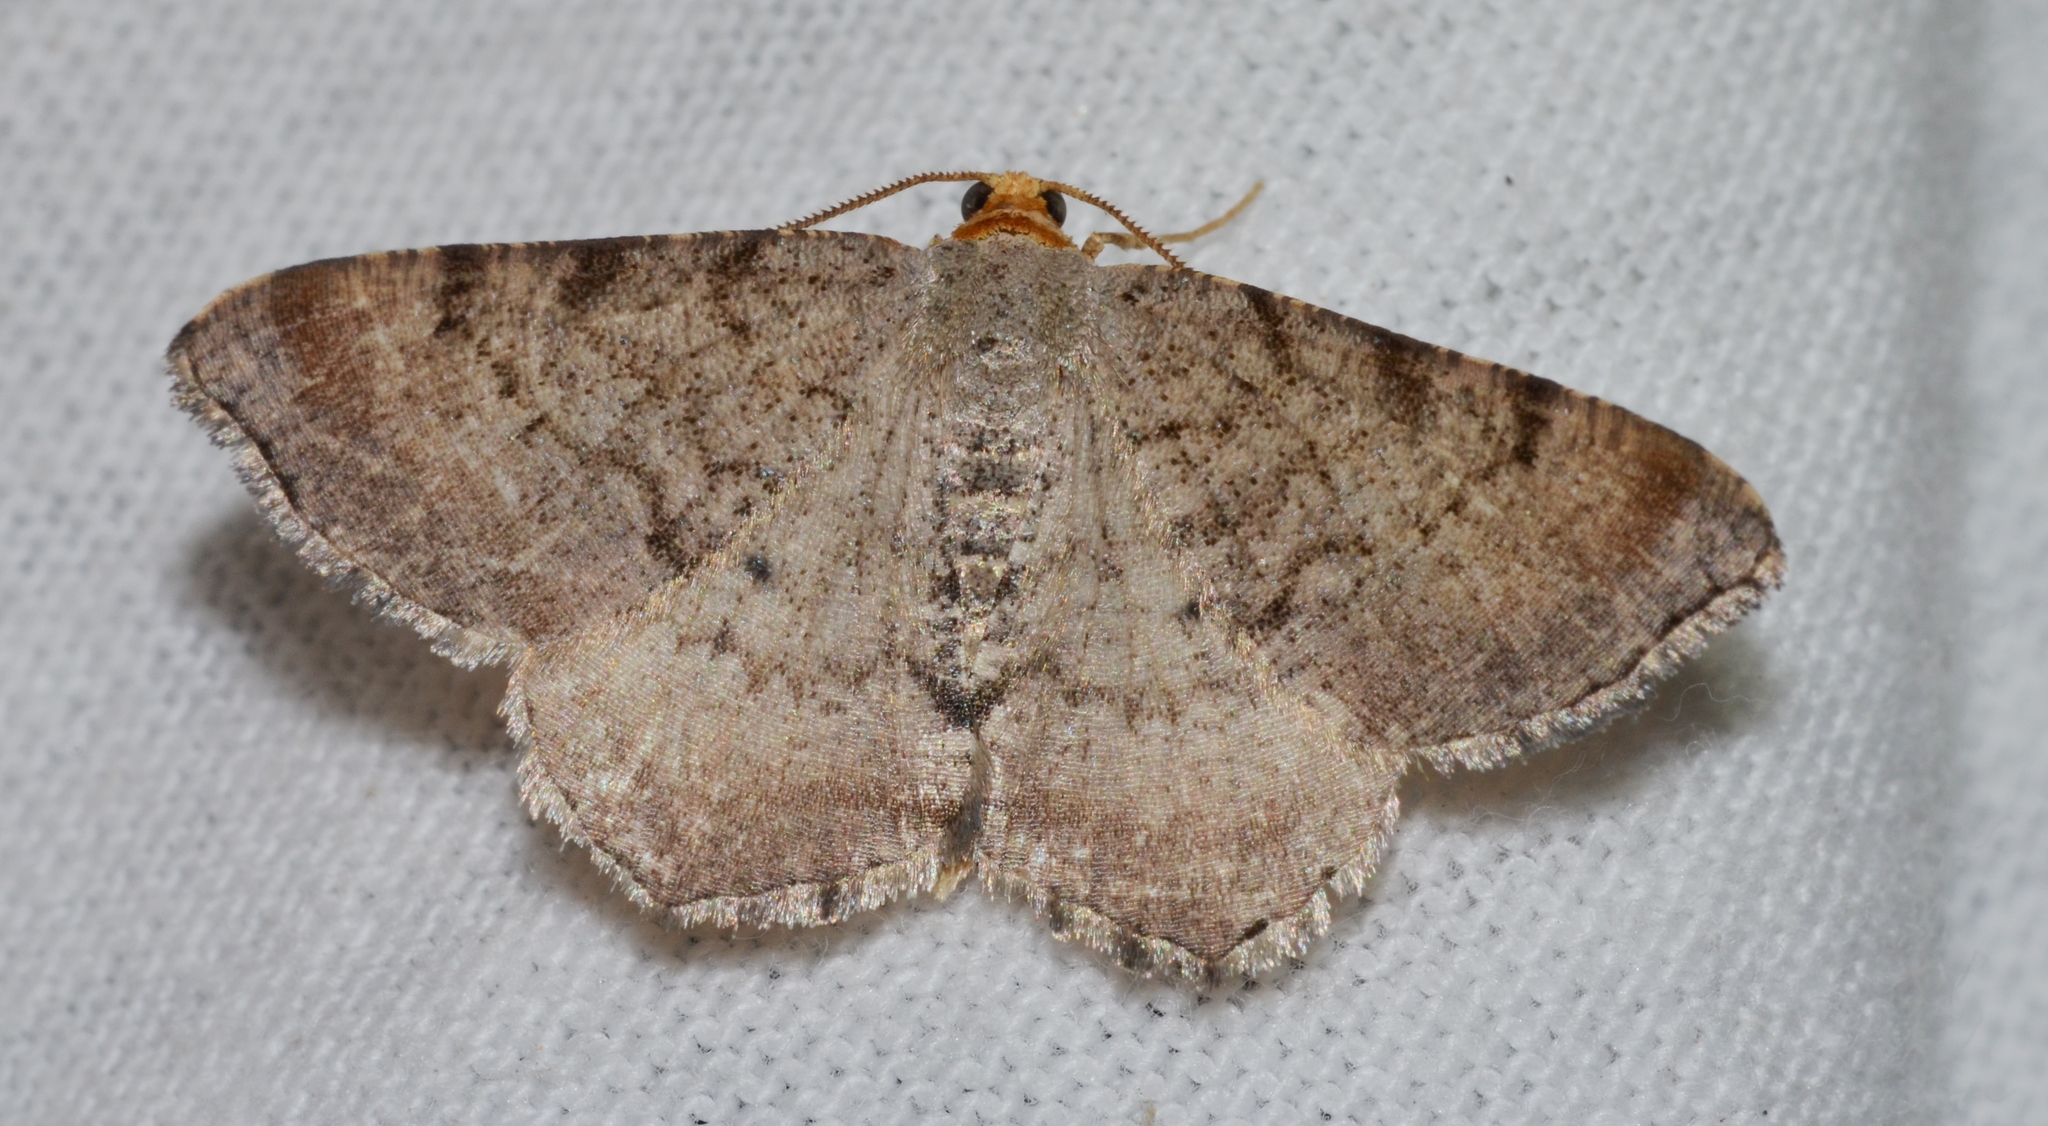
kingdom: Animalia
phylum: Arthropoda
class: Insecta
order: Lepidoptera
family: Geometridae
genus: Macaria
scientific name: Macaria minorata
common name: Minor angle moth
